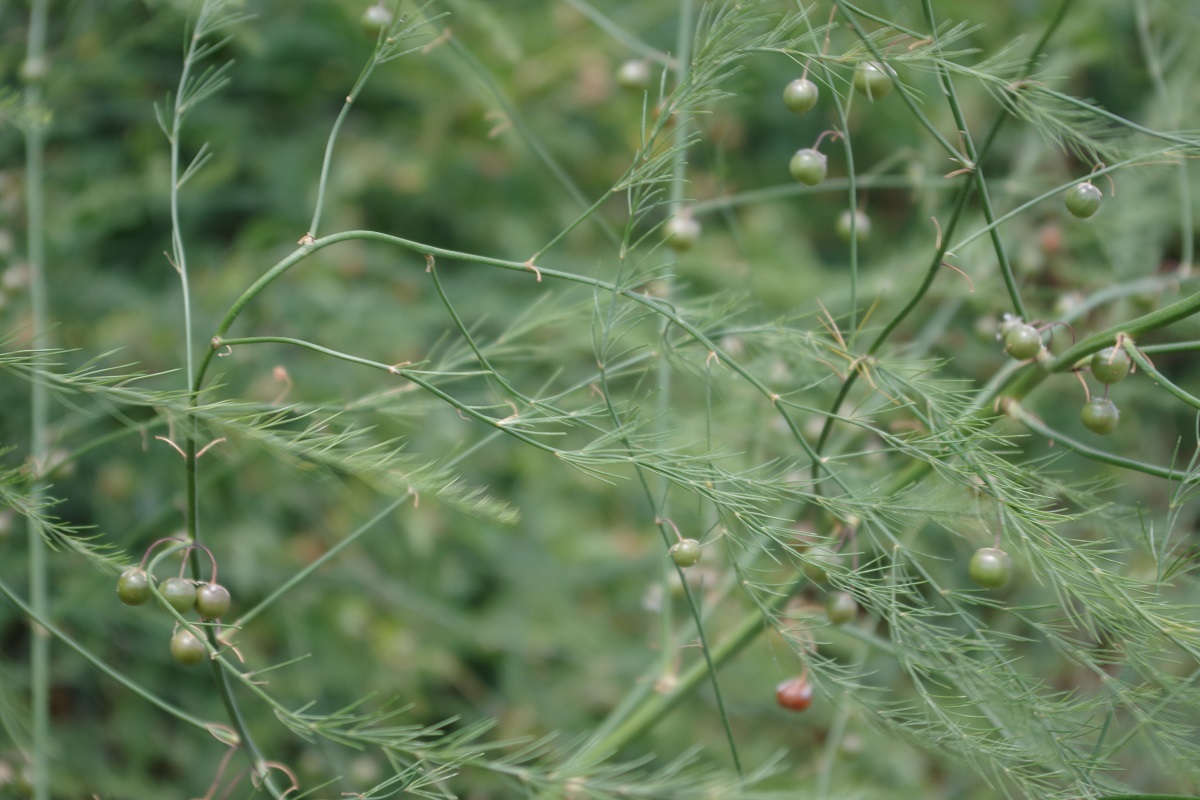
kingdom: Plantae
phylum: Tracheophyta
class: Liliopsida
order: Asparagales
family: Asparagaceae
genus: Asparagus
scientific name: Asparagus officinalis
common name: Garden asparagus
